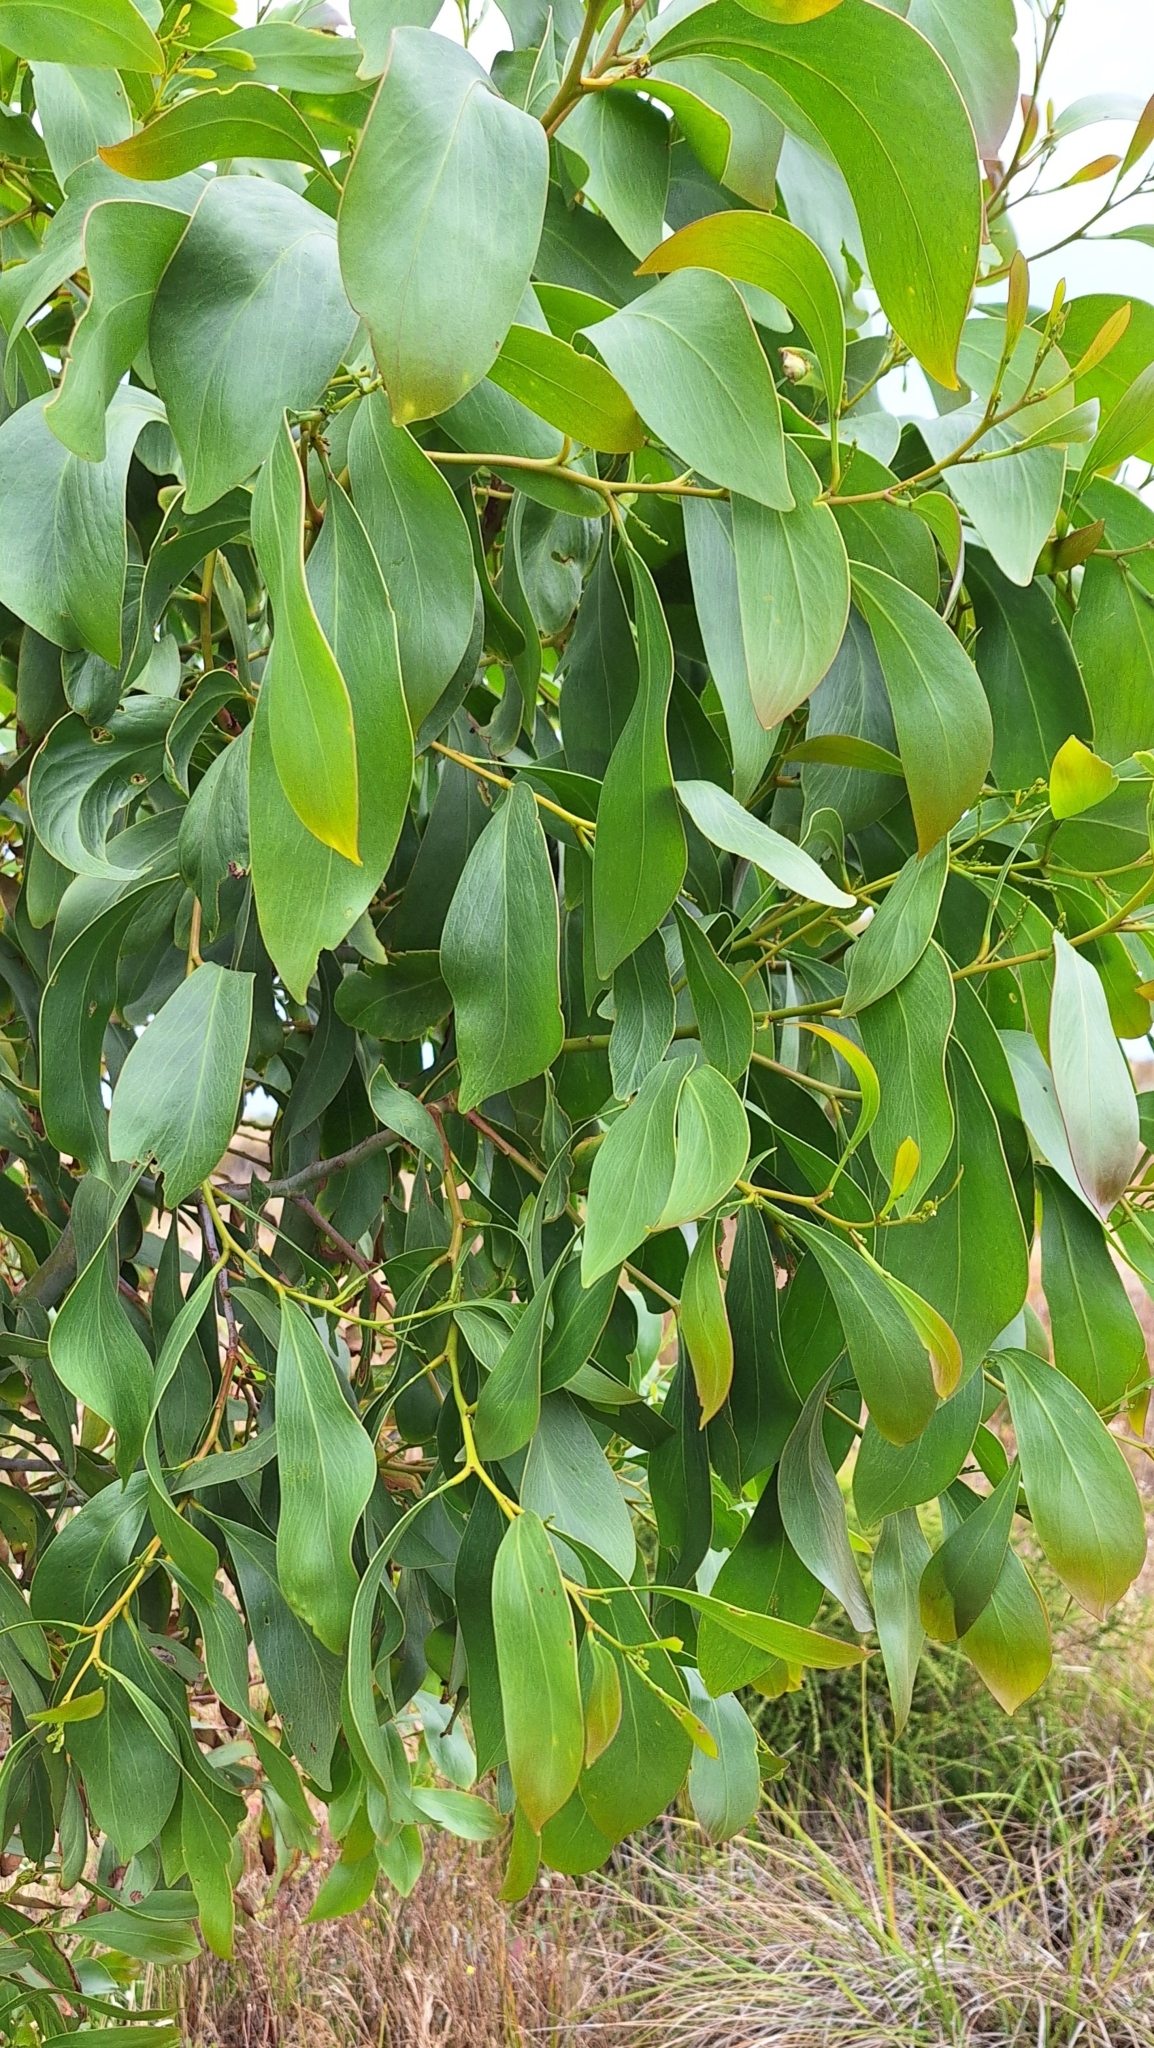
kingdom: Plantae
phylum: Tracheophyta
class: Magnoliopsida
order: Fabales
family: Fabaceae
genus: Acacia
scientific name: Acacia pycnantha
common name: Golden wattle
